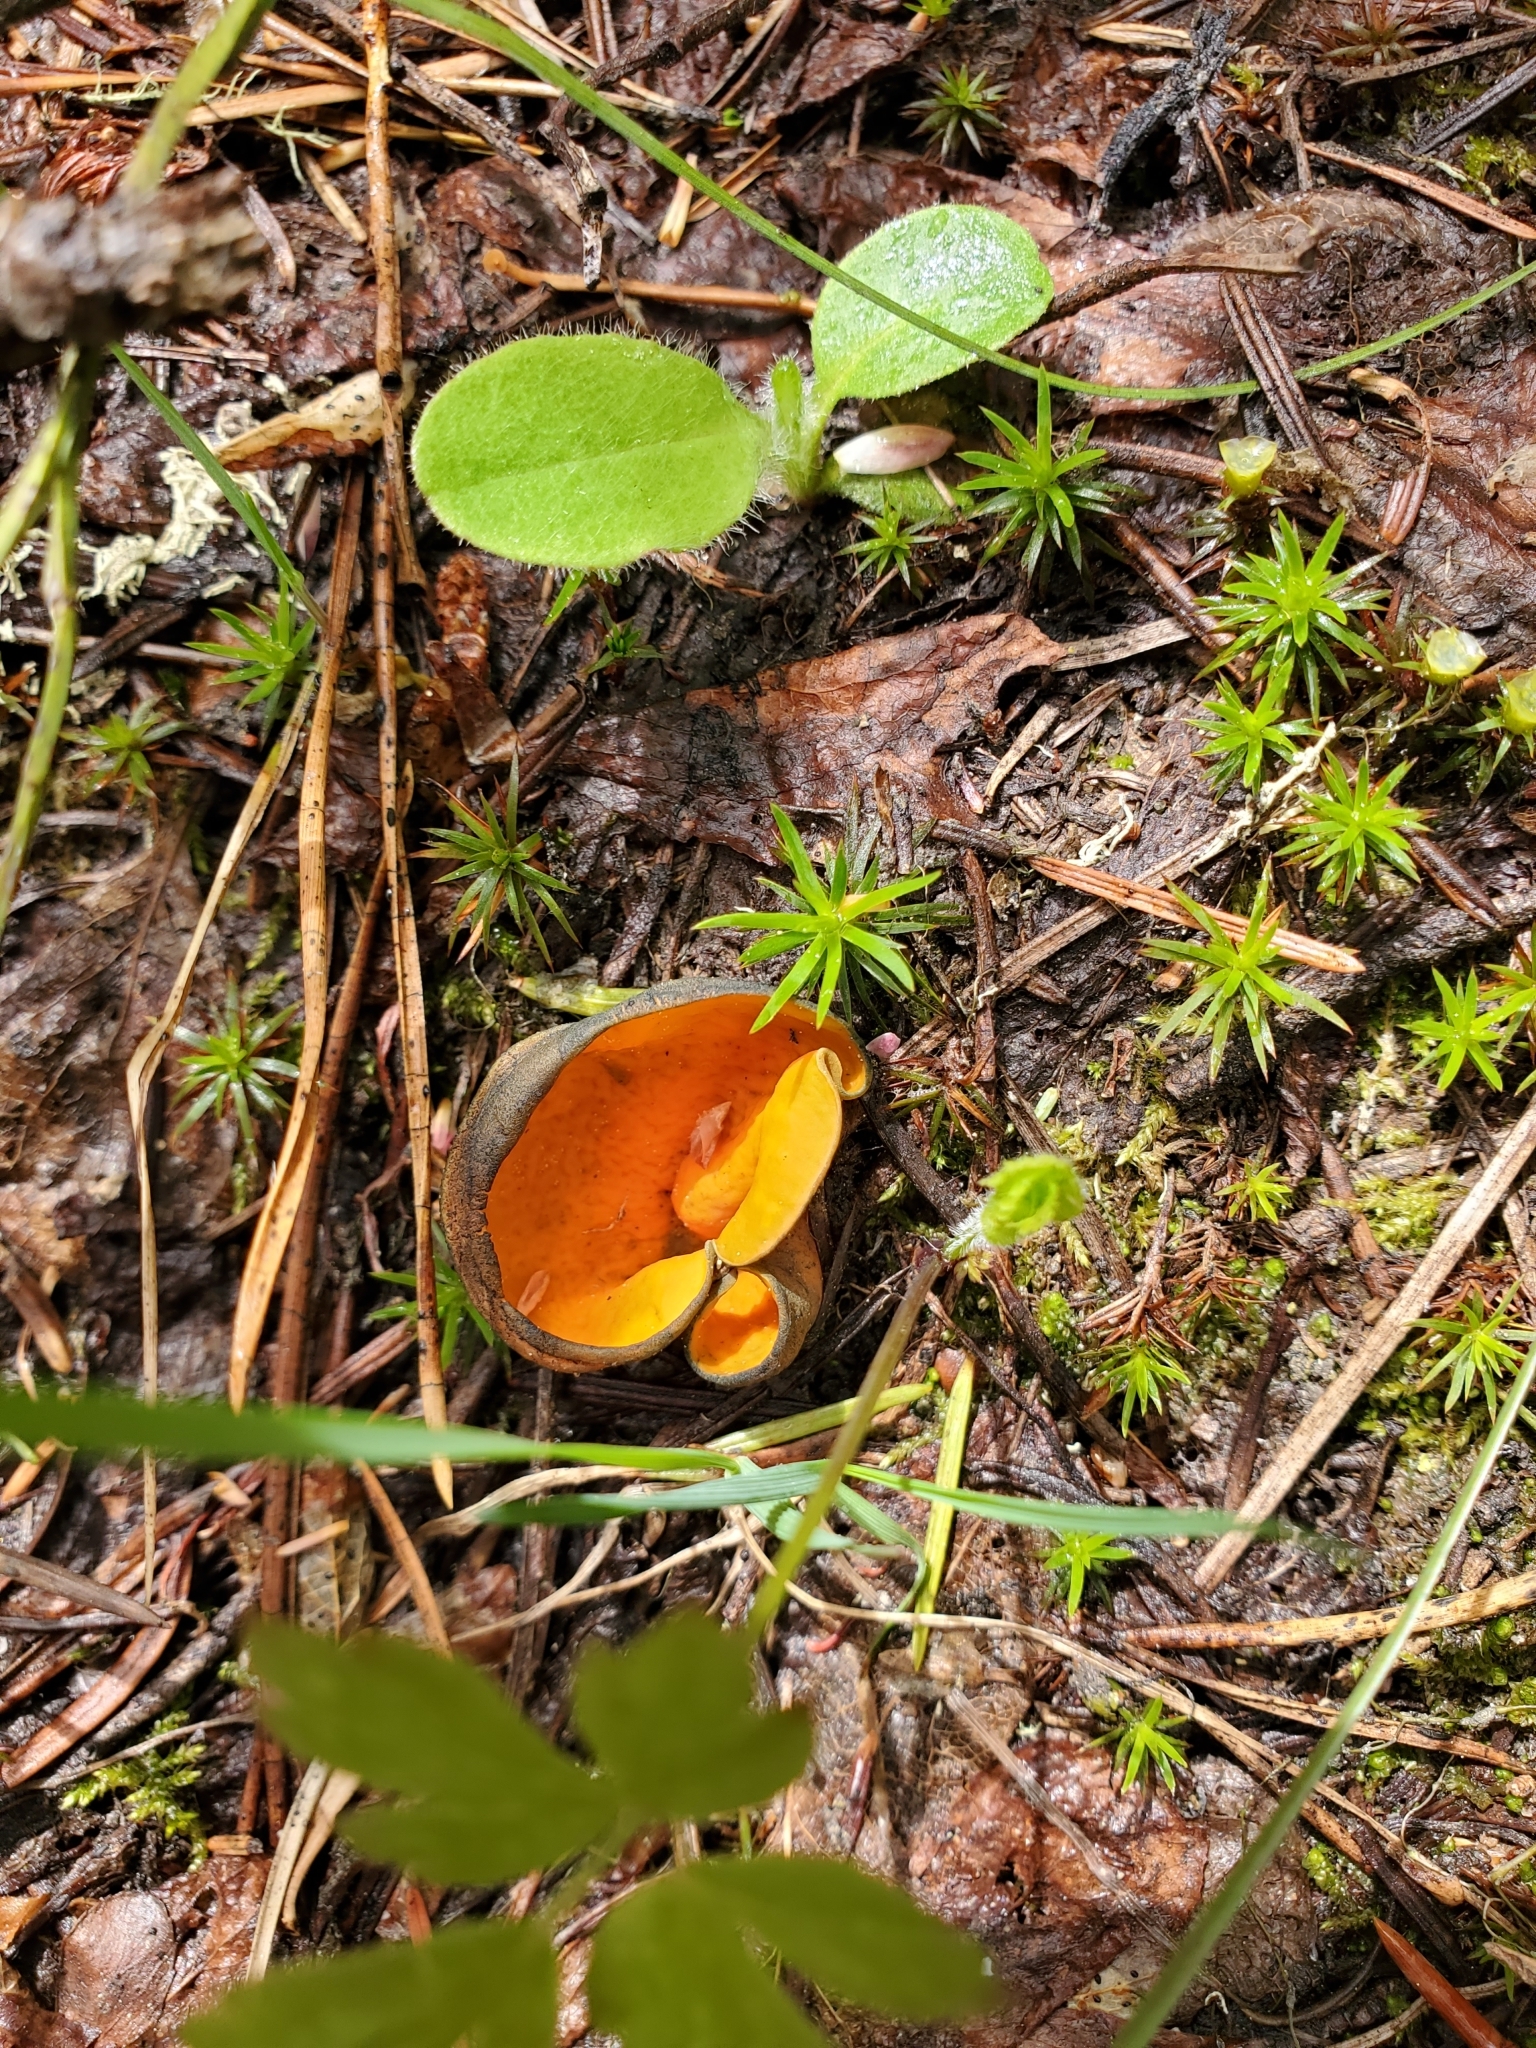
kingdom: Fungi
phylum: Ascomycota
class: Pezizomycetes
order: Pezizales
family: Caloscyphaceae
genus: Caloscypha
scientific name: Caloscypha fulgens
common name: Golden cup
